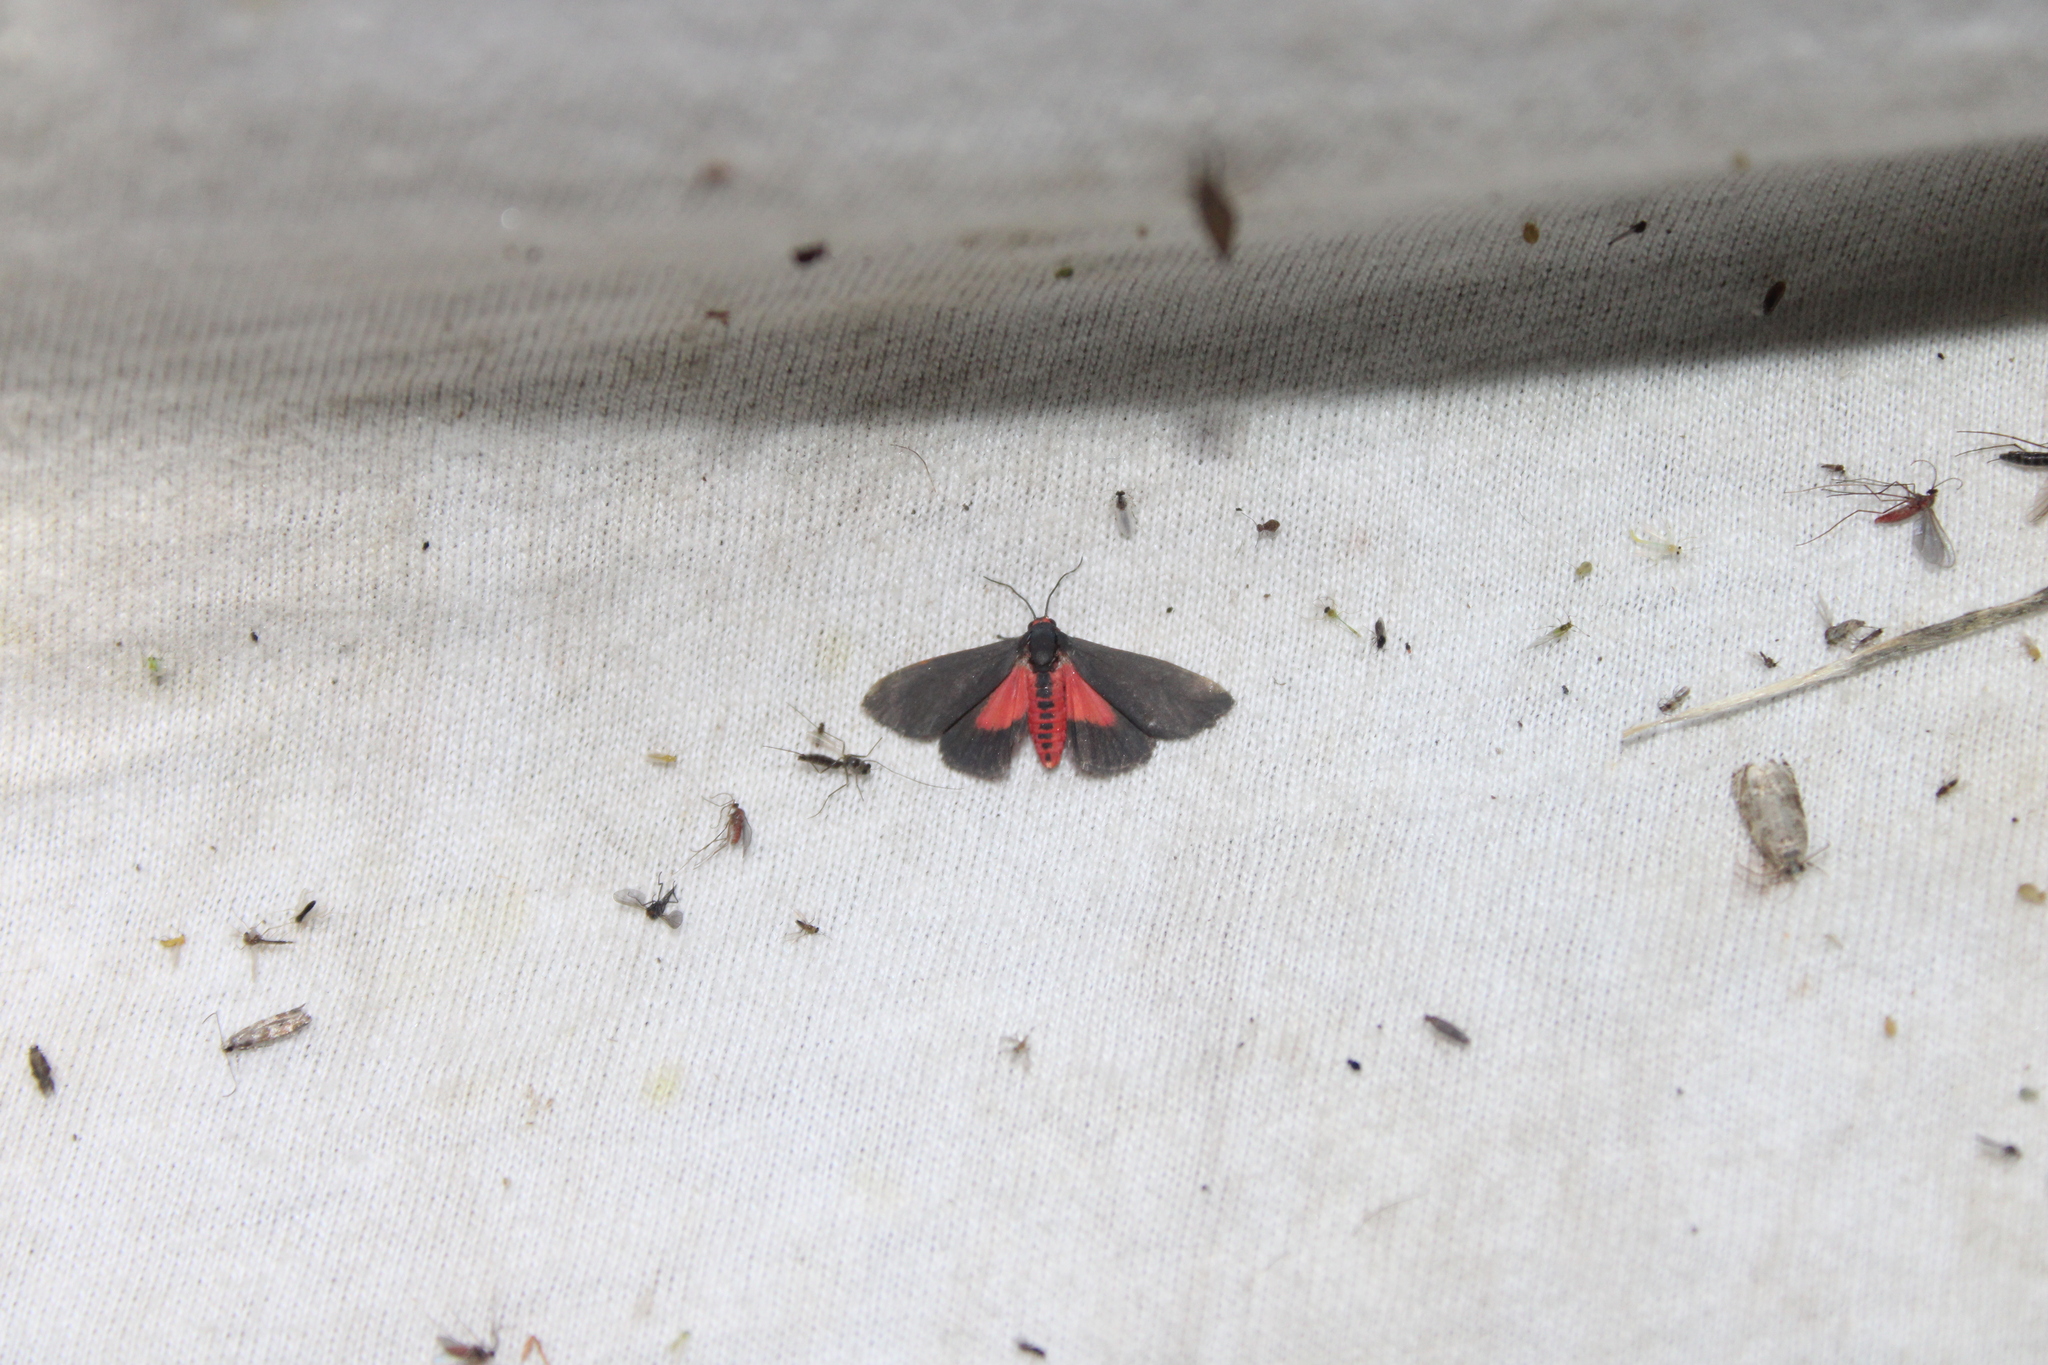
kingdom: Animalia
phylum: Arthropoda
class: Insecta
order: Lepidoptera
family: Erebidae
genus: Virbia
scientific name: Virbia laeta
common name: Joyful holomelina moth
